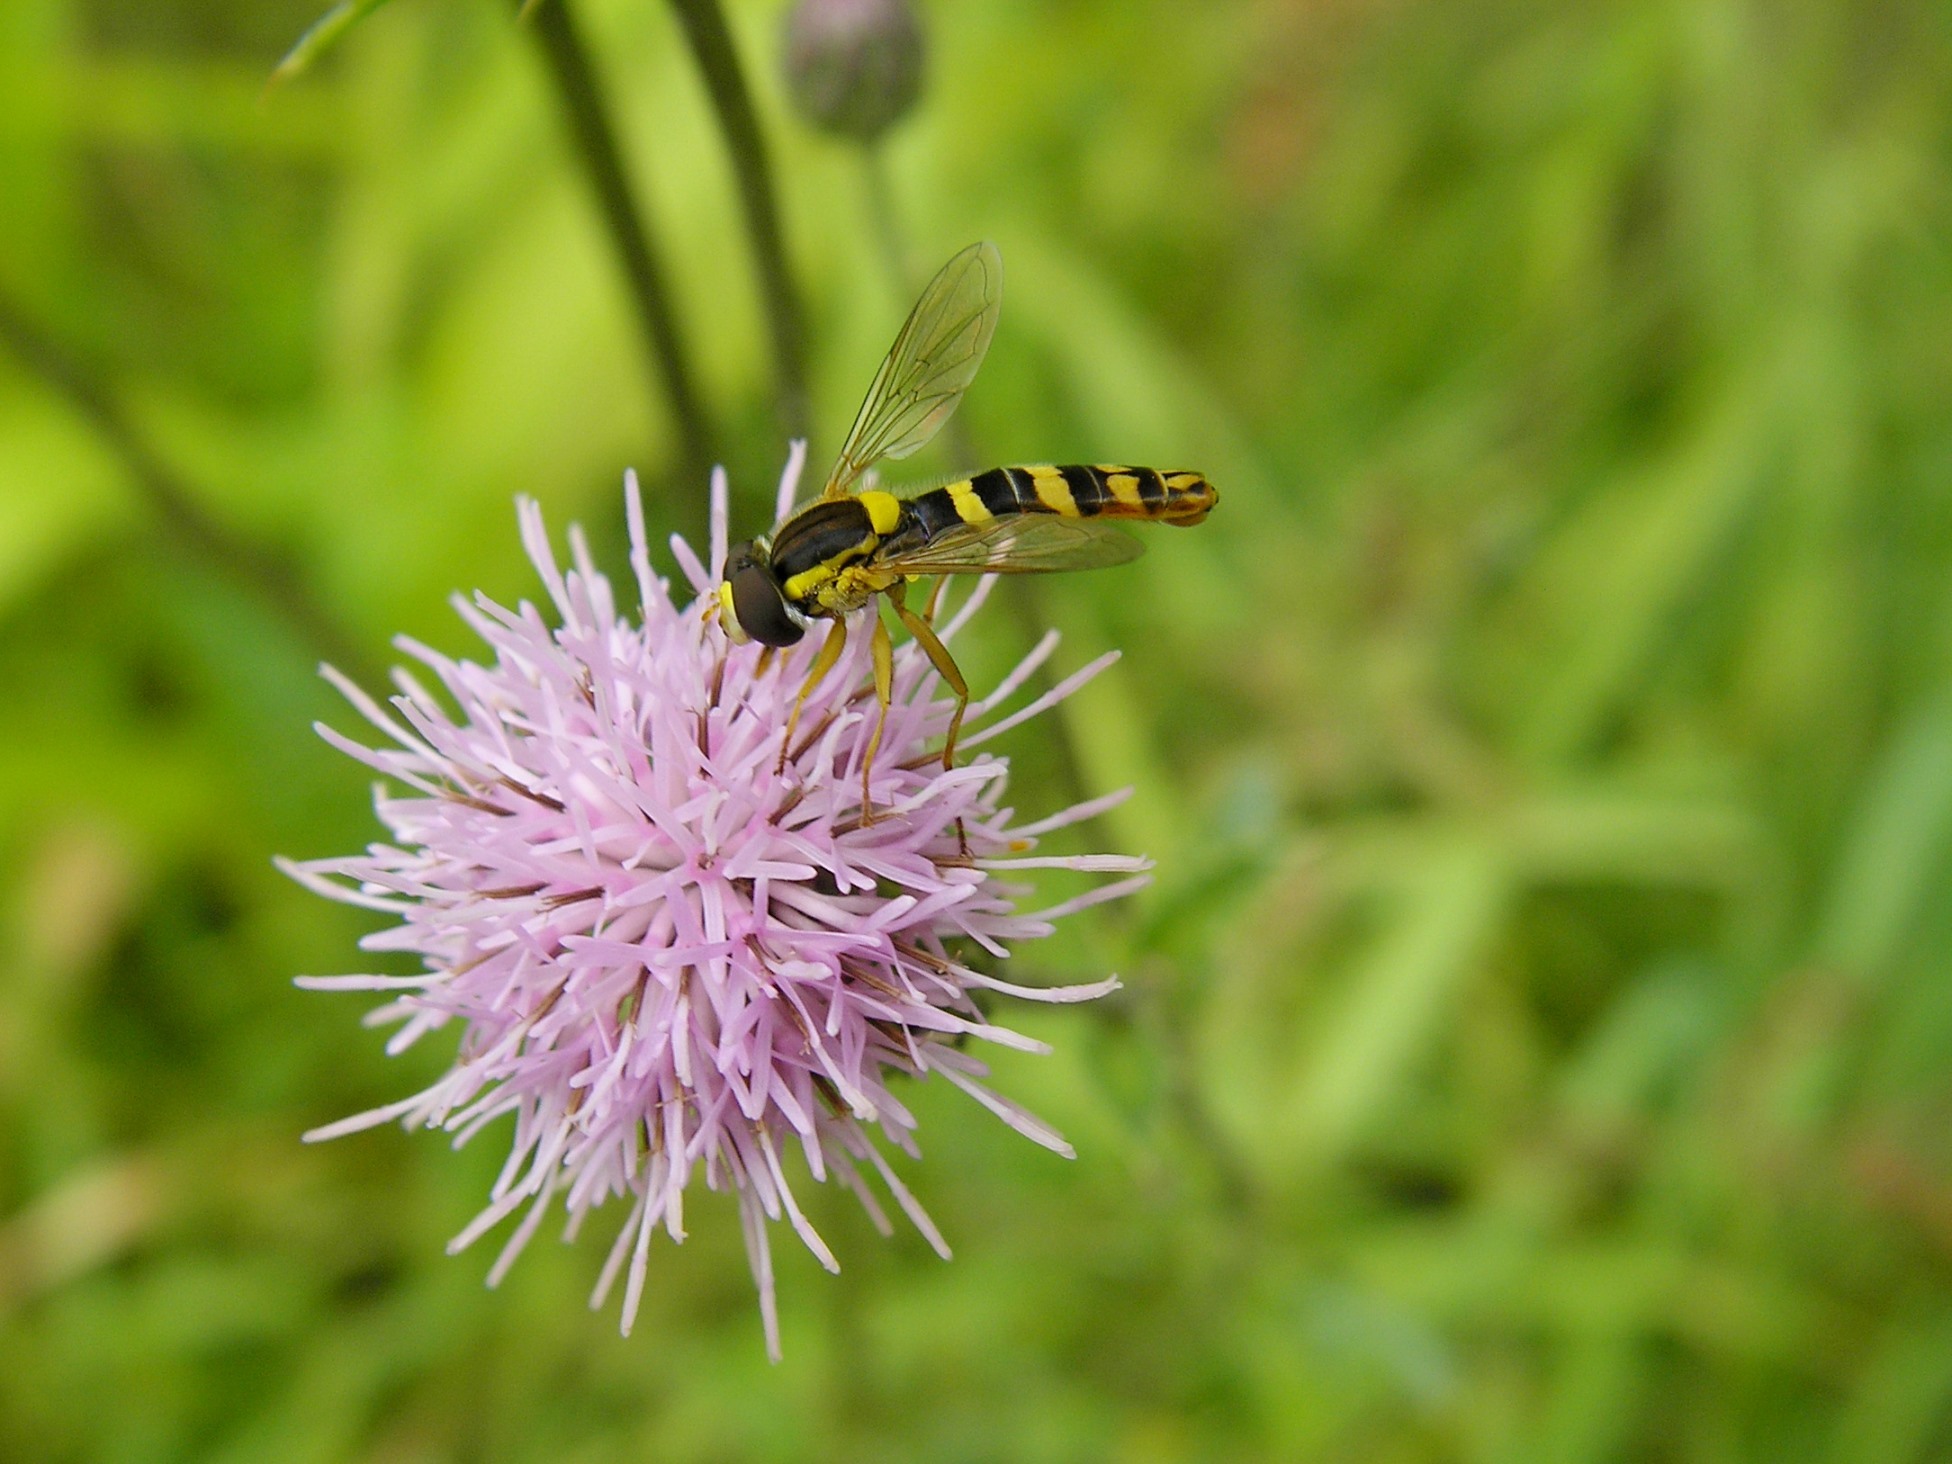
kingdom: Animalia
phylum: Arthropoda
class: Insecta
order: Diptera
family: Syrphidae
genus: Sphaerophoria
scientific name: Sphaerophoria scripta
